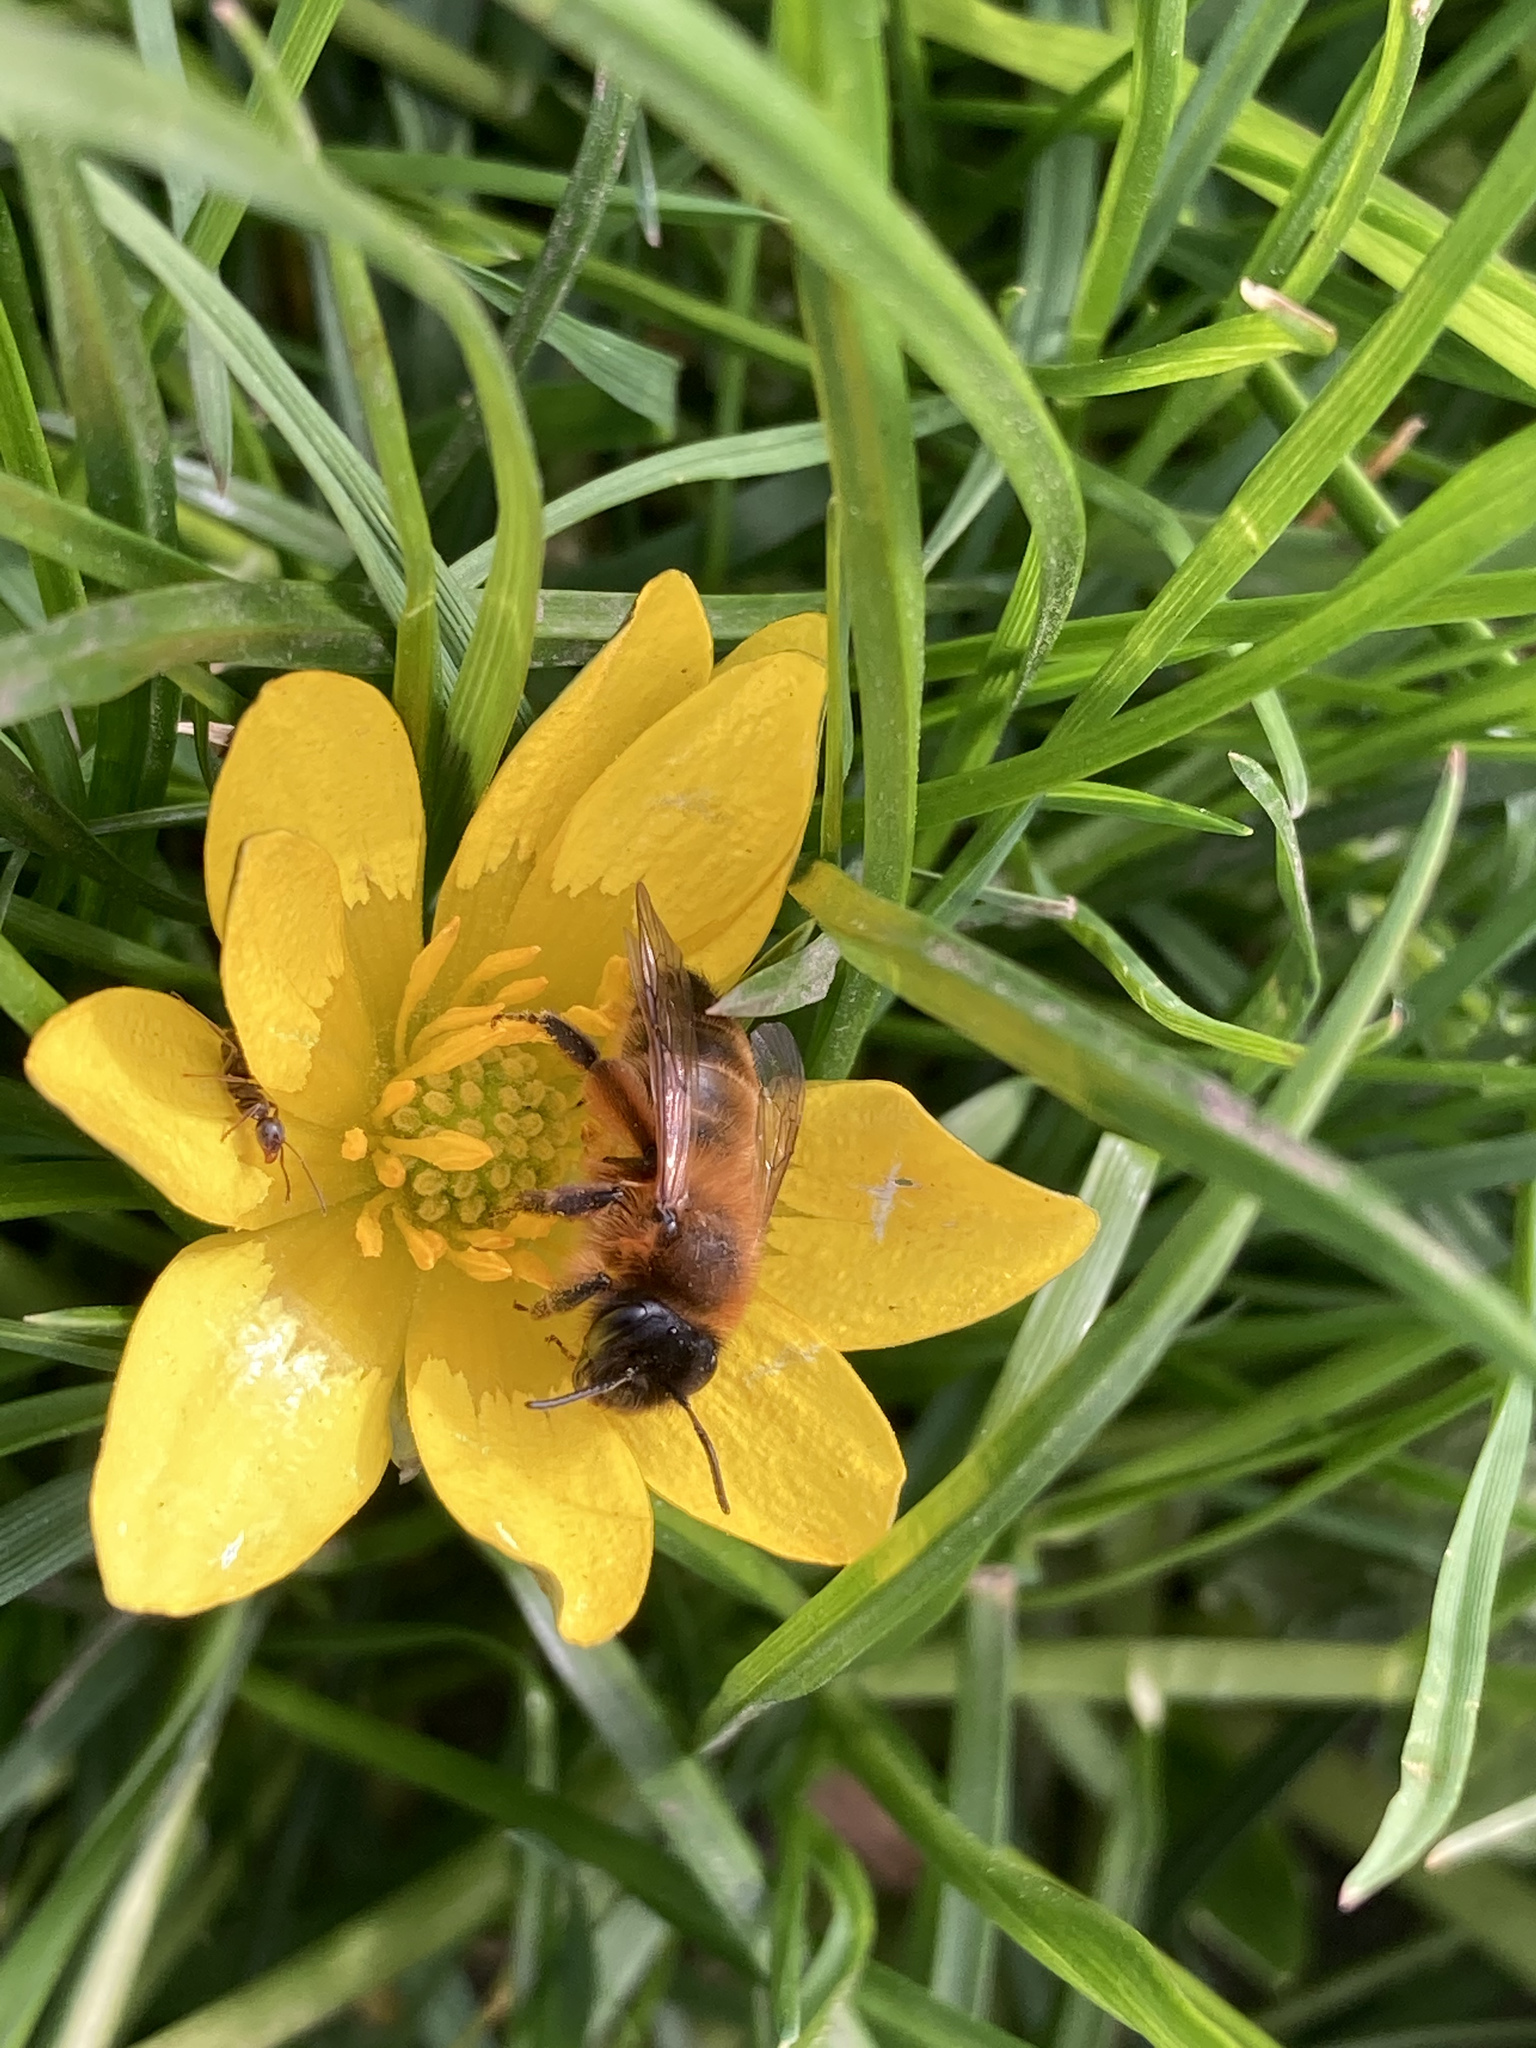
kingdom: Animalia
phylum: Arthropoda
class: Insecta
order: Hymenoptera
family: Andrenidae
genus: Andrena
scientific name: Andrena nigroaenea
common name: Buffish mining bee
